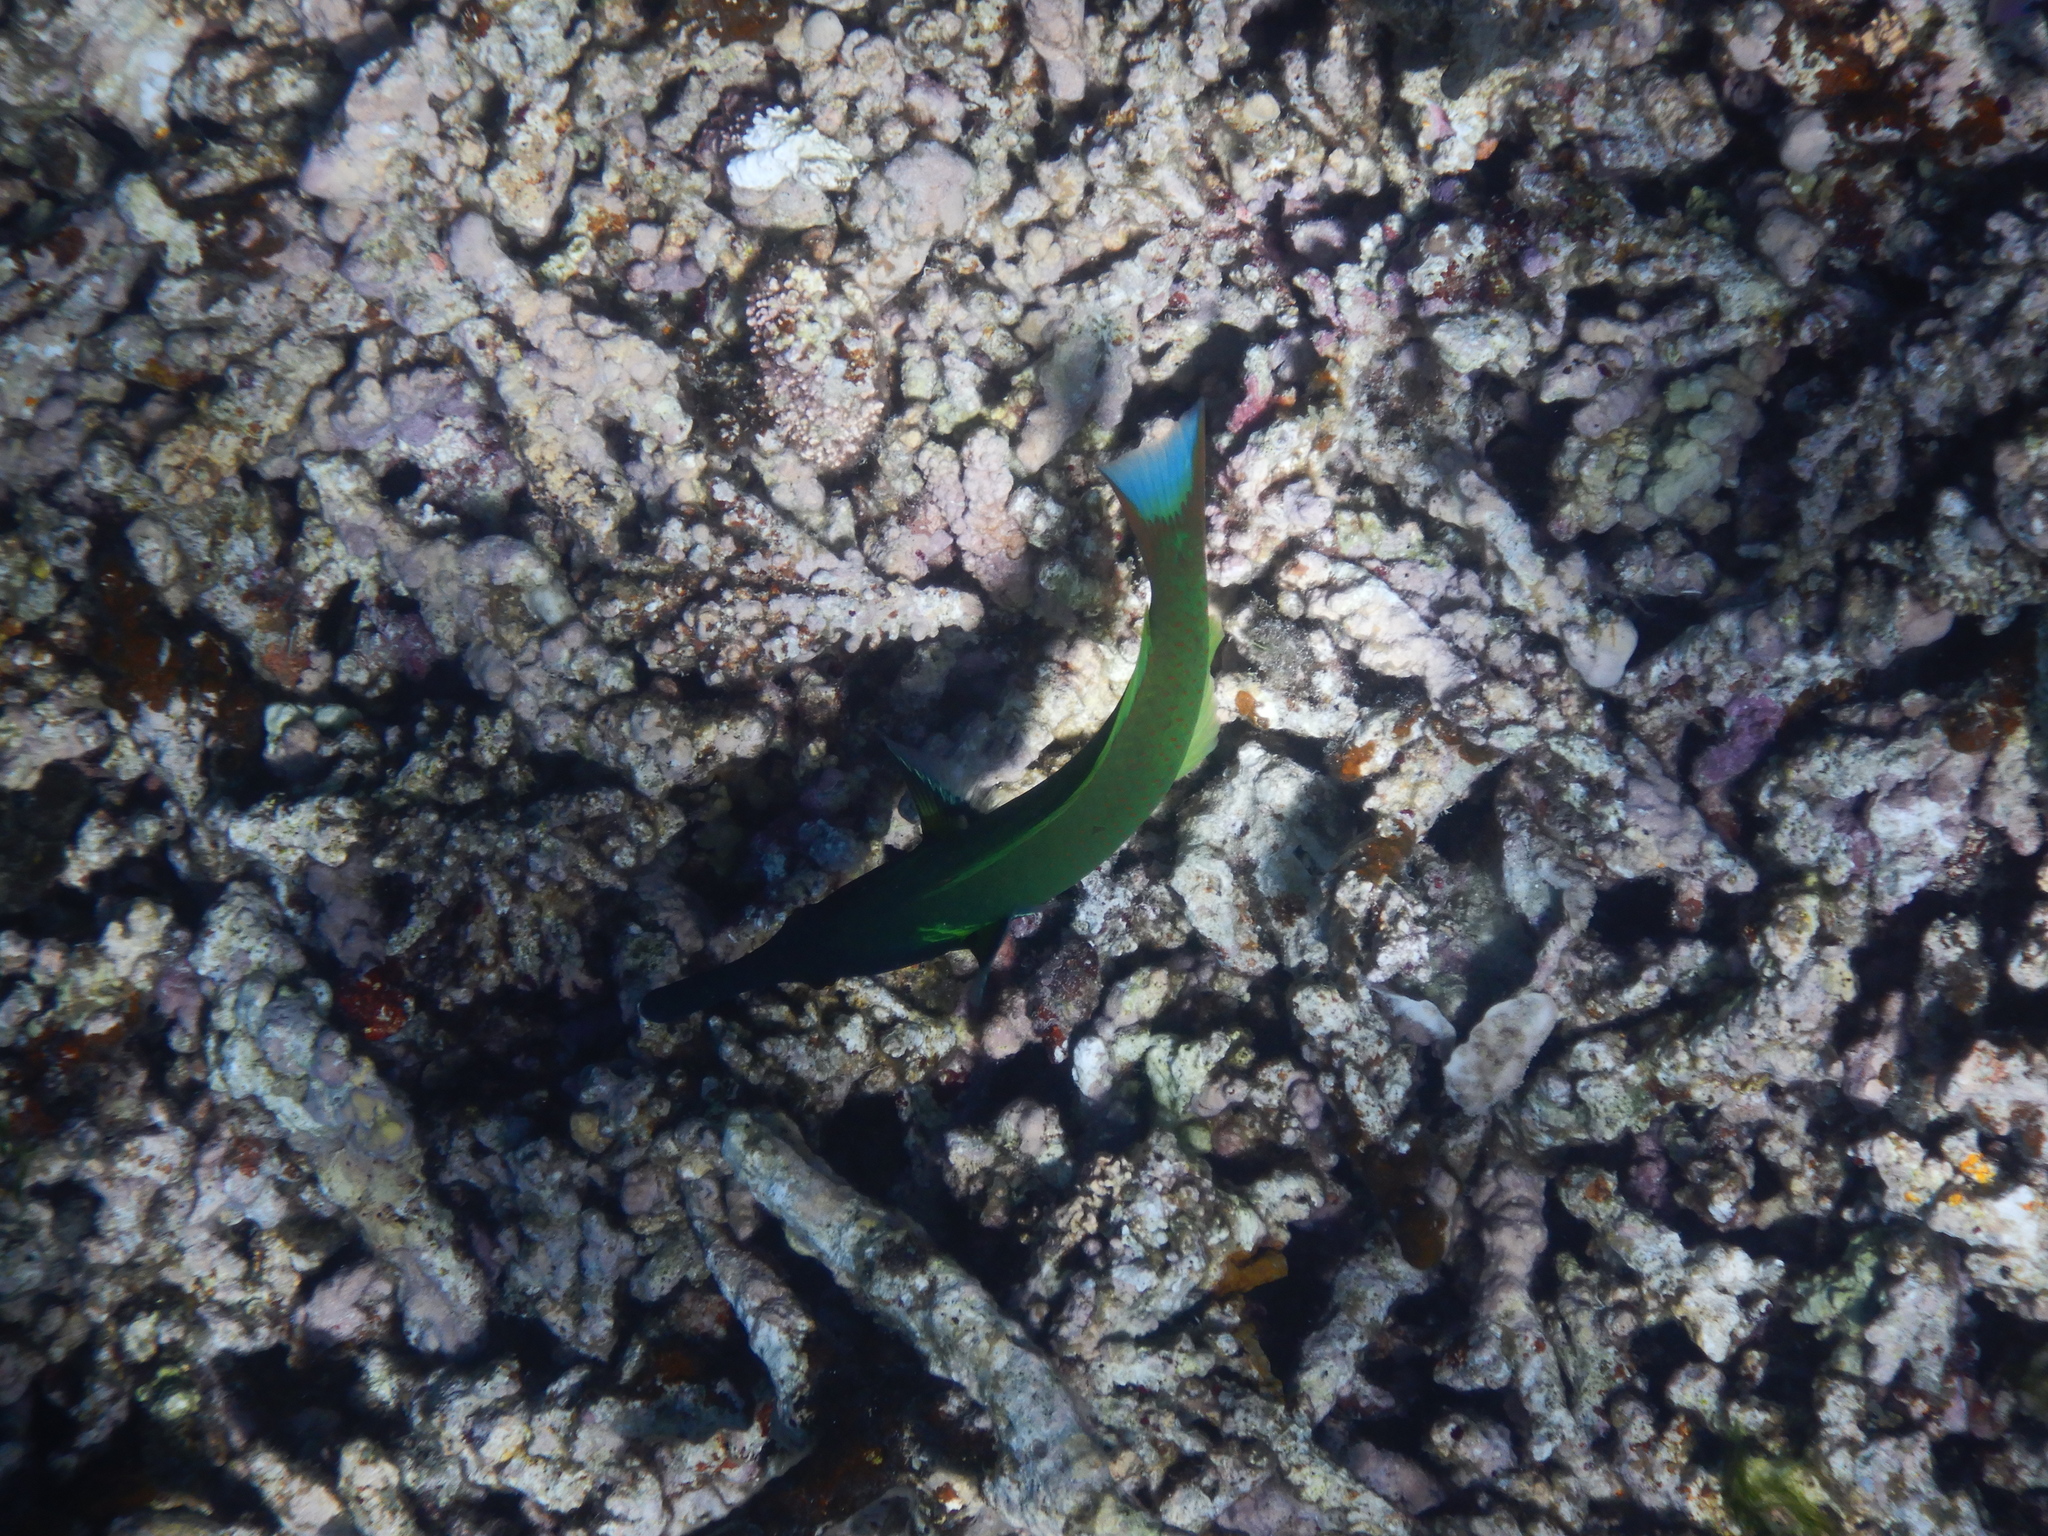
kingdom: Animalia
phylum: Chordata
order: Perciformes
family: Labridae
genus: Gomphosus
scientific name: Gomphosus varius
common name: Bird wrasse
